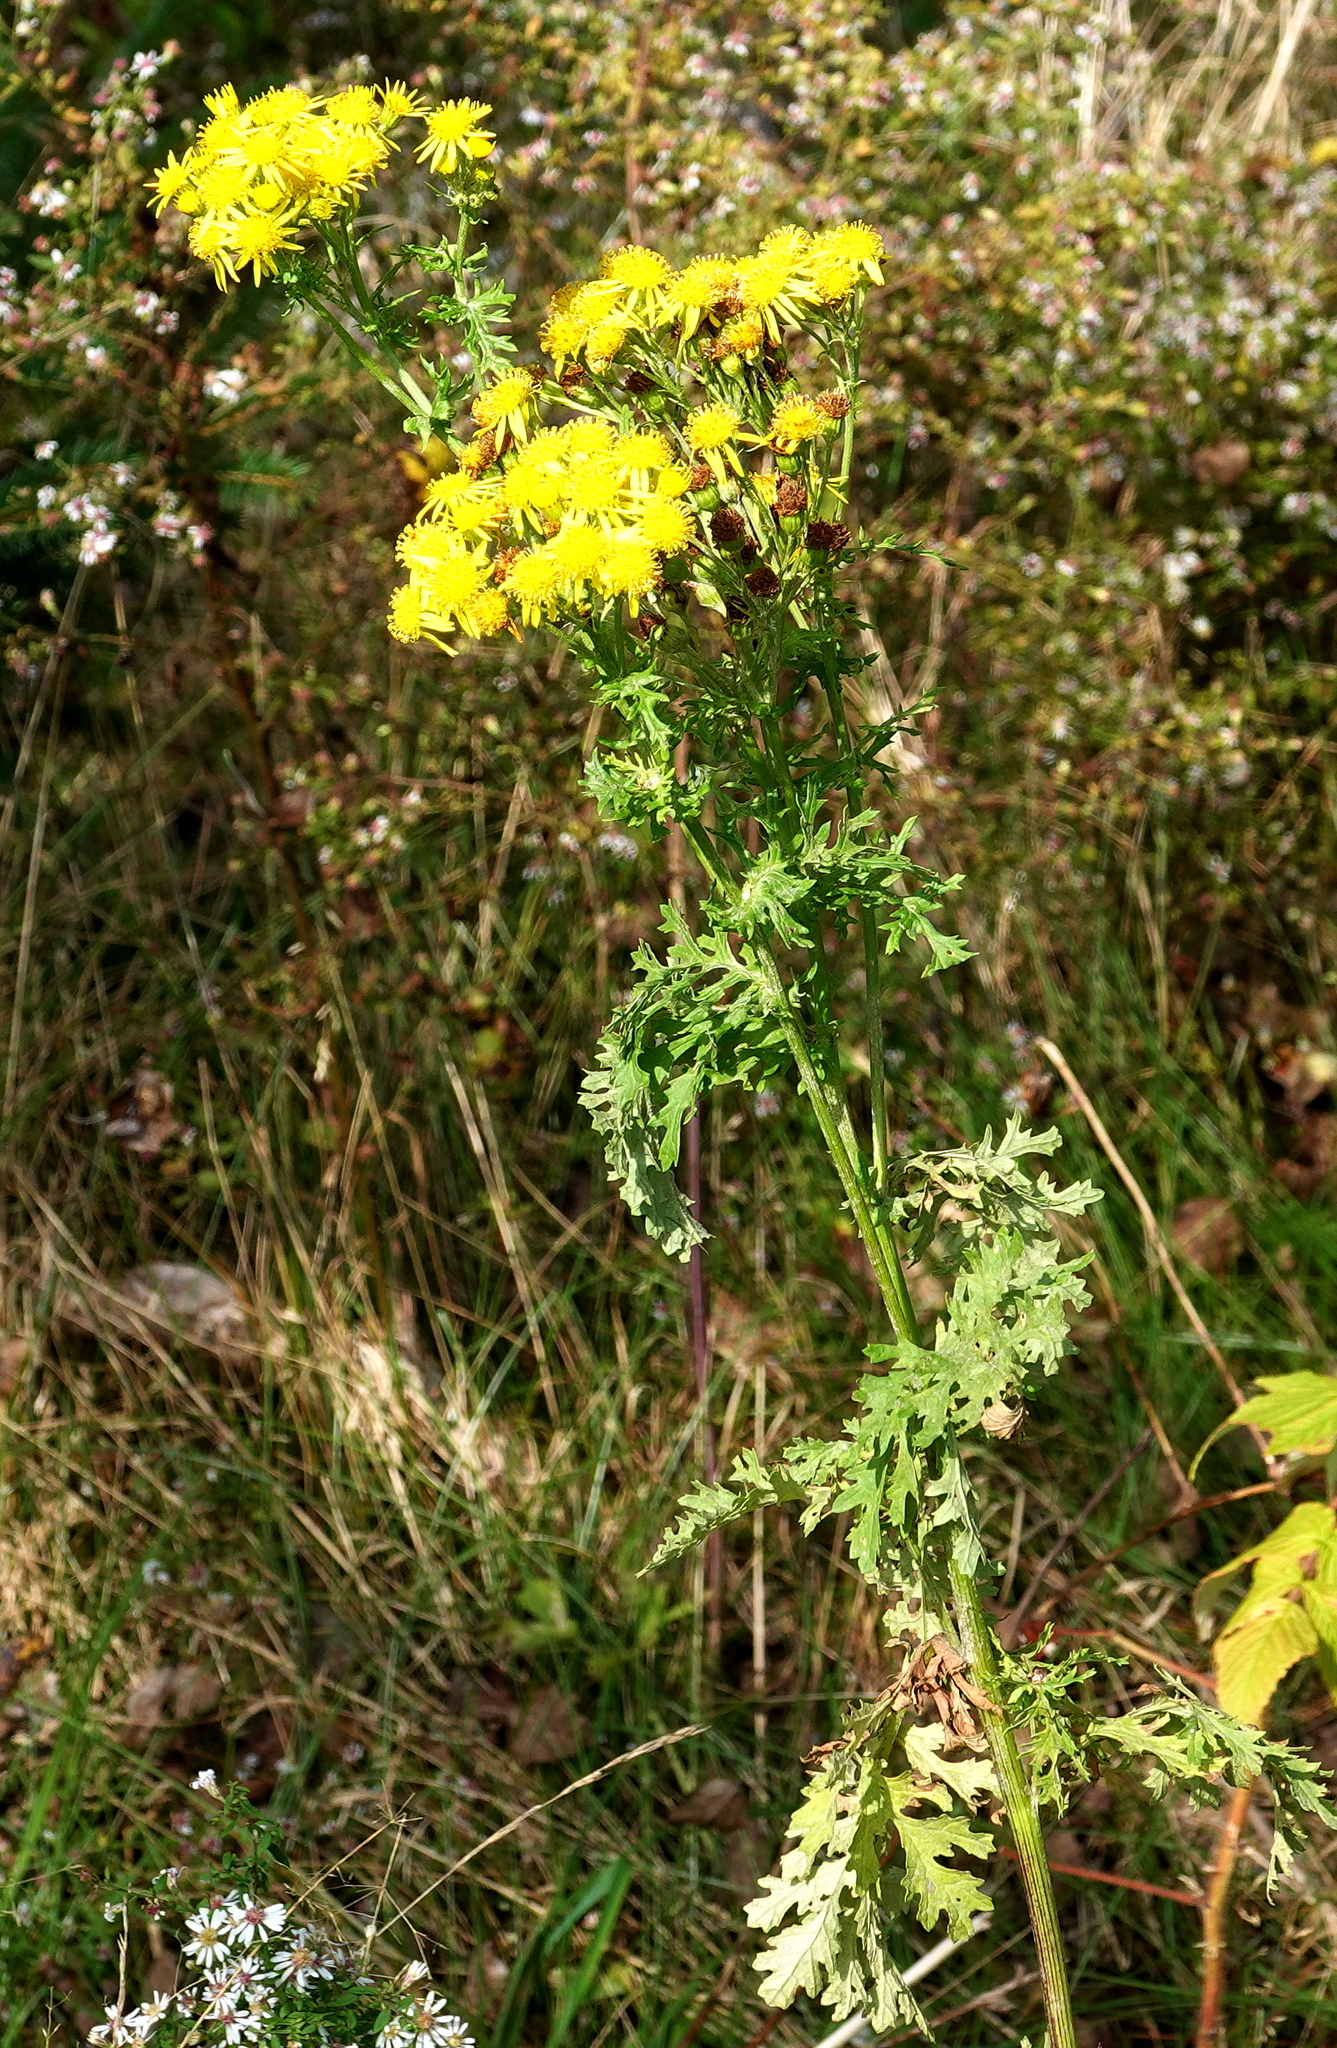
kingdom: Plantae
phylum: Tracheophyta
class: Magnoliopsida
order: Asterales
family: Asteraceae
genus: Jacobaea
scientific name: Jacobaea vulgaris
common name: Stinking willie
